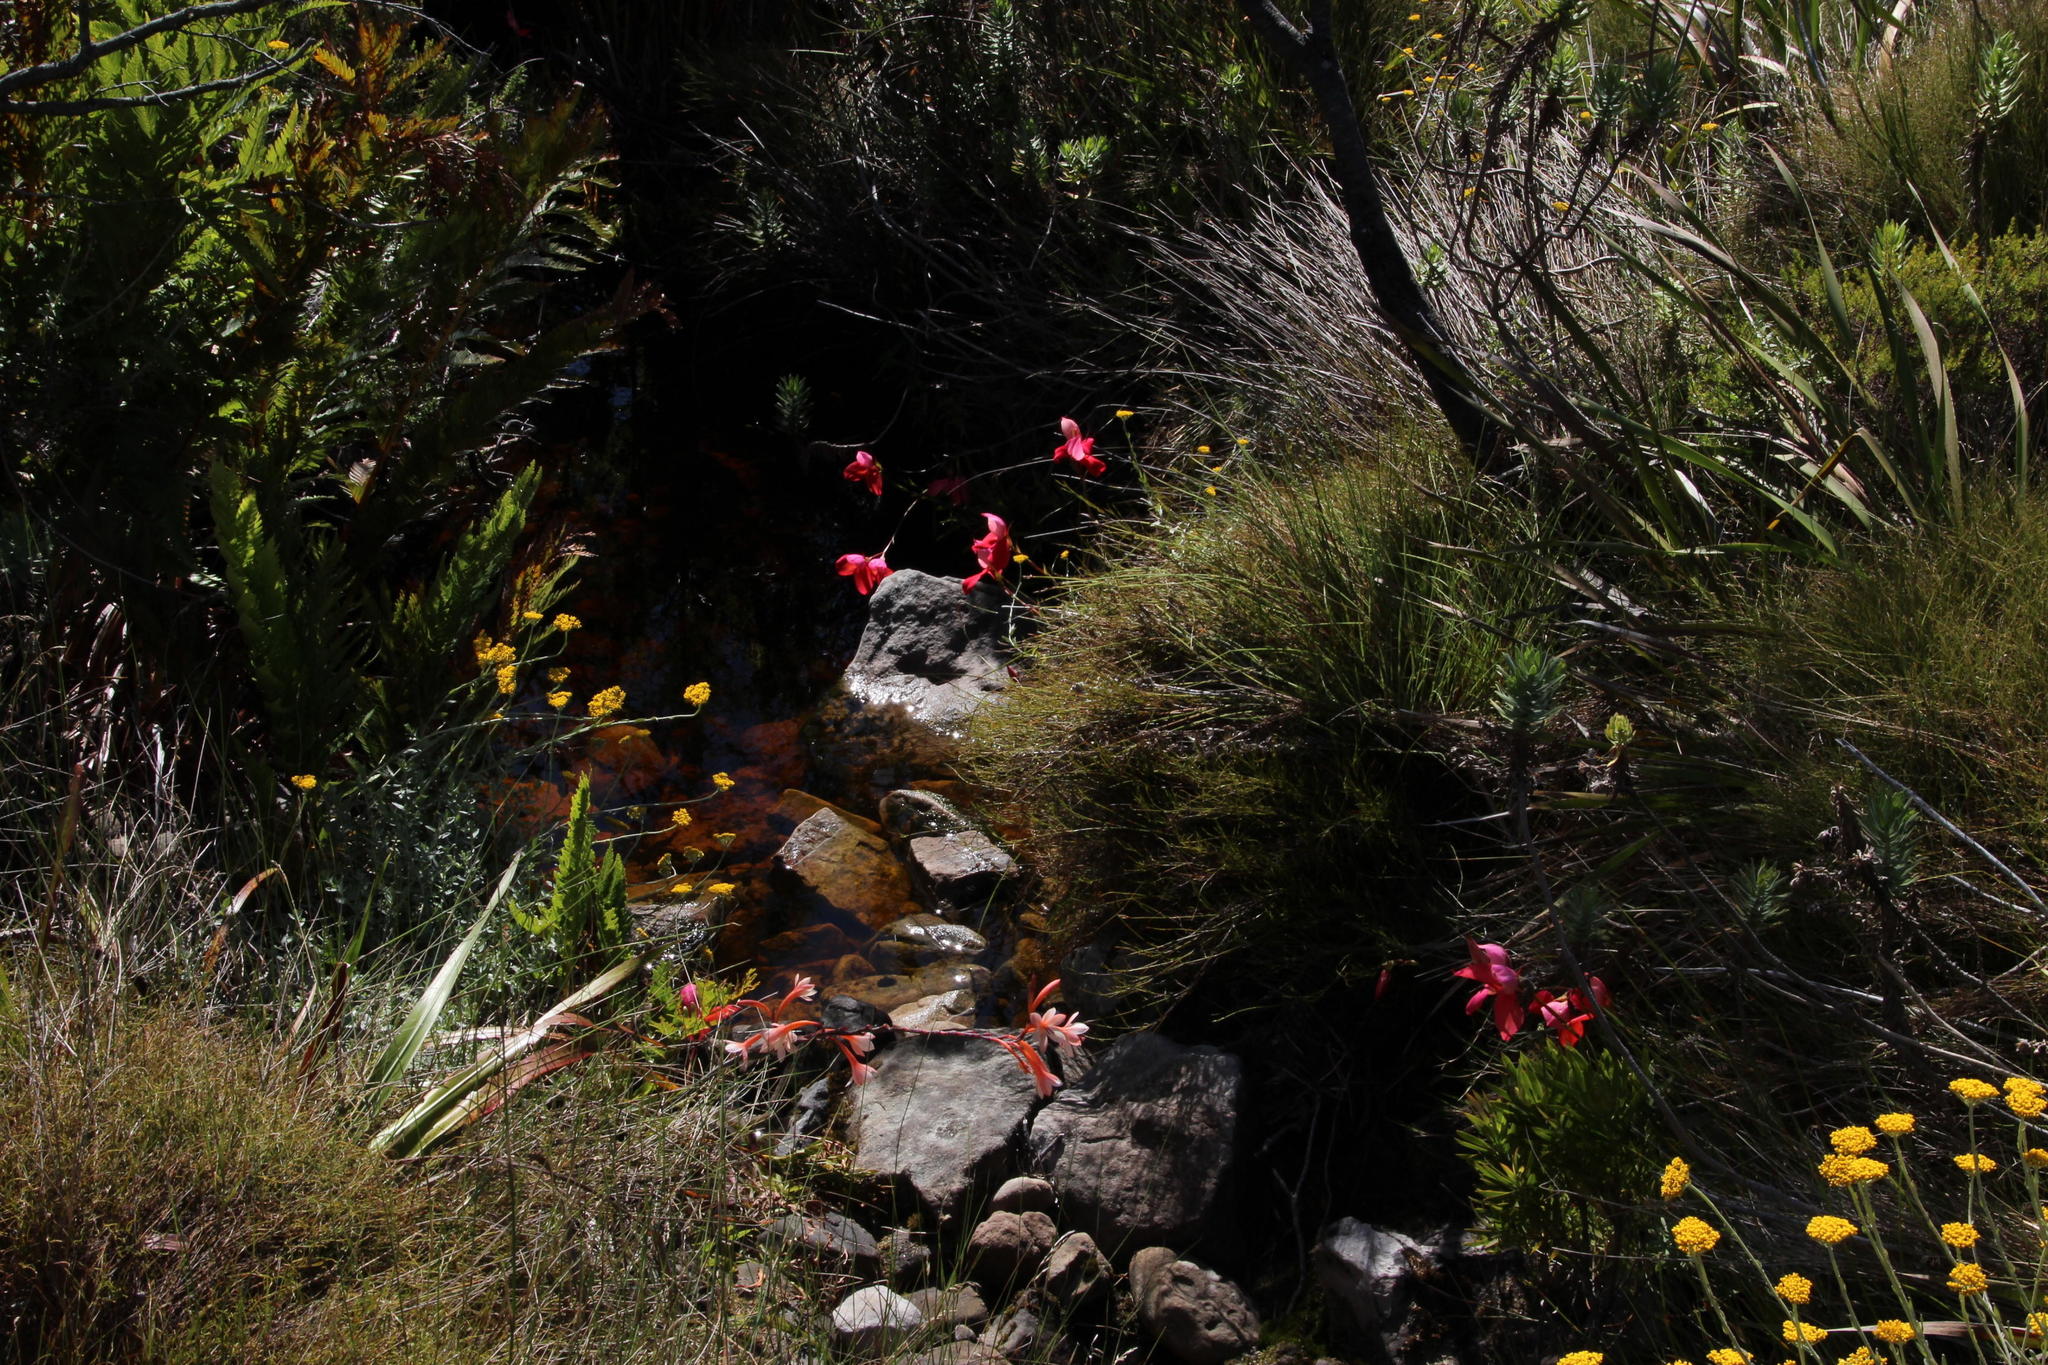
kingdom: Plantae
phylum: Tracheophyta
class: Liliopsida
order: Asparagales
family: Orchidaceae
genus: Disa
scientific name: Disa uniflora
